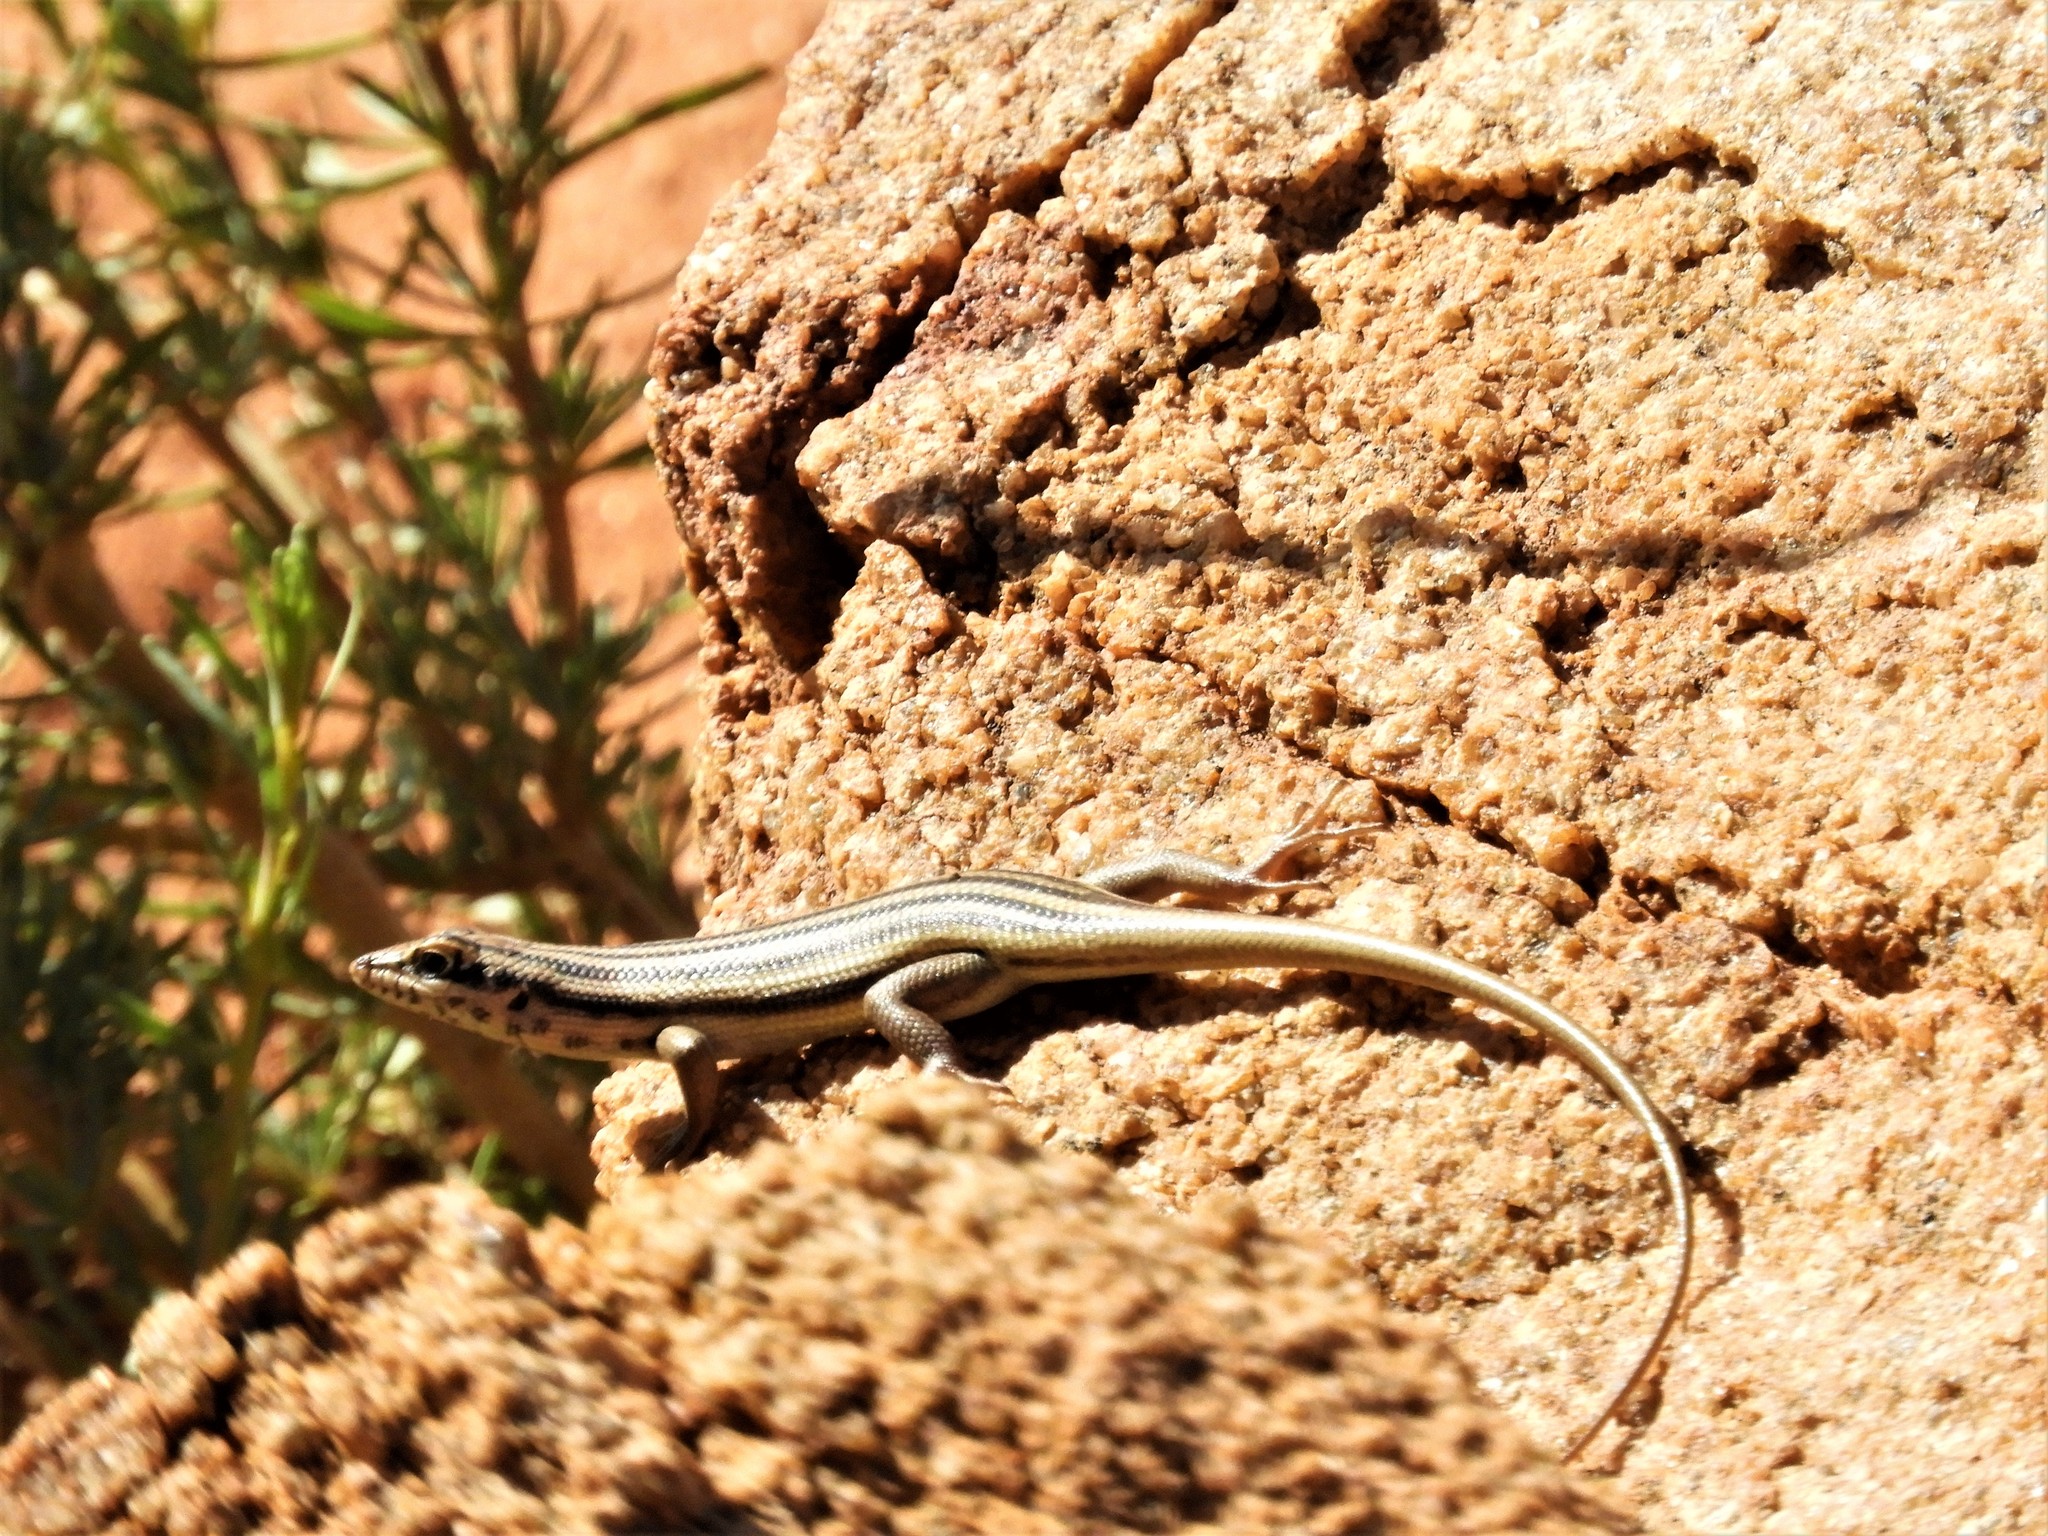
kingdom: Animalia
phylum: Chordata
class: Squamata
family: Scincidae
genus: Trachylepis
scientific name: Trachylepis sulcata
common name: Western rock skink
